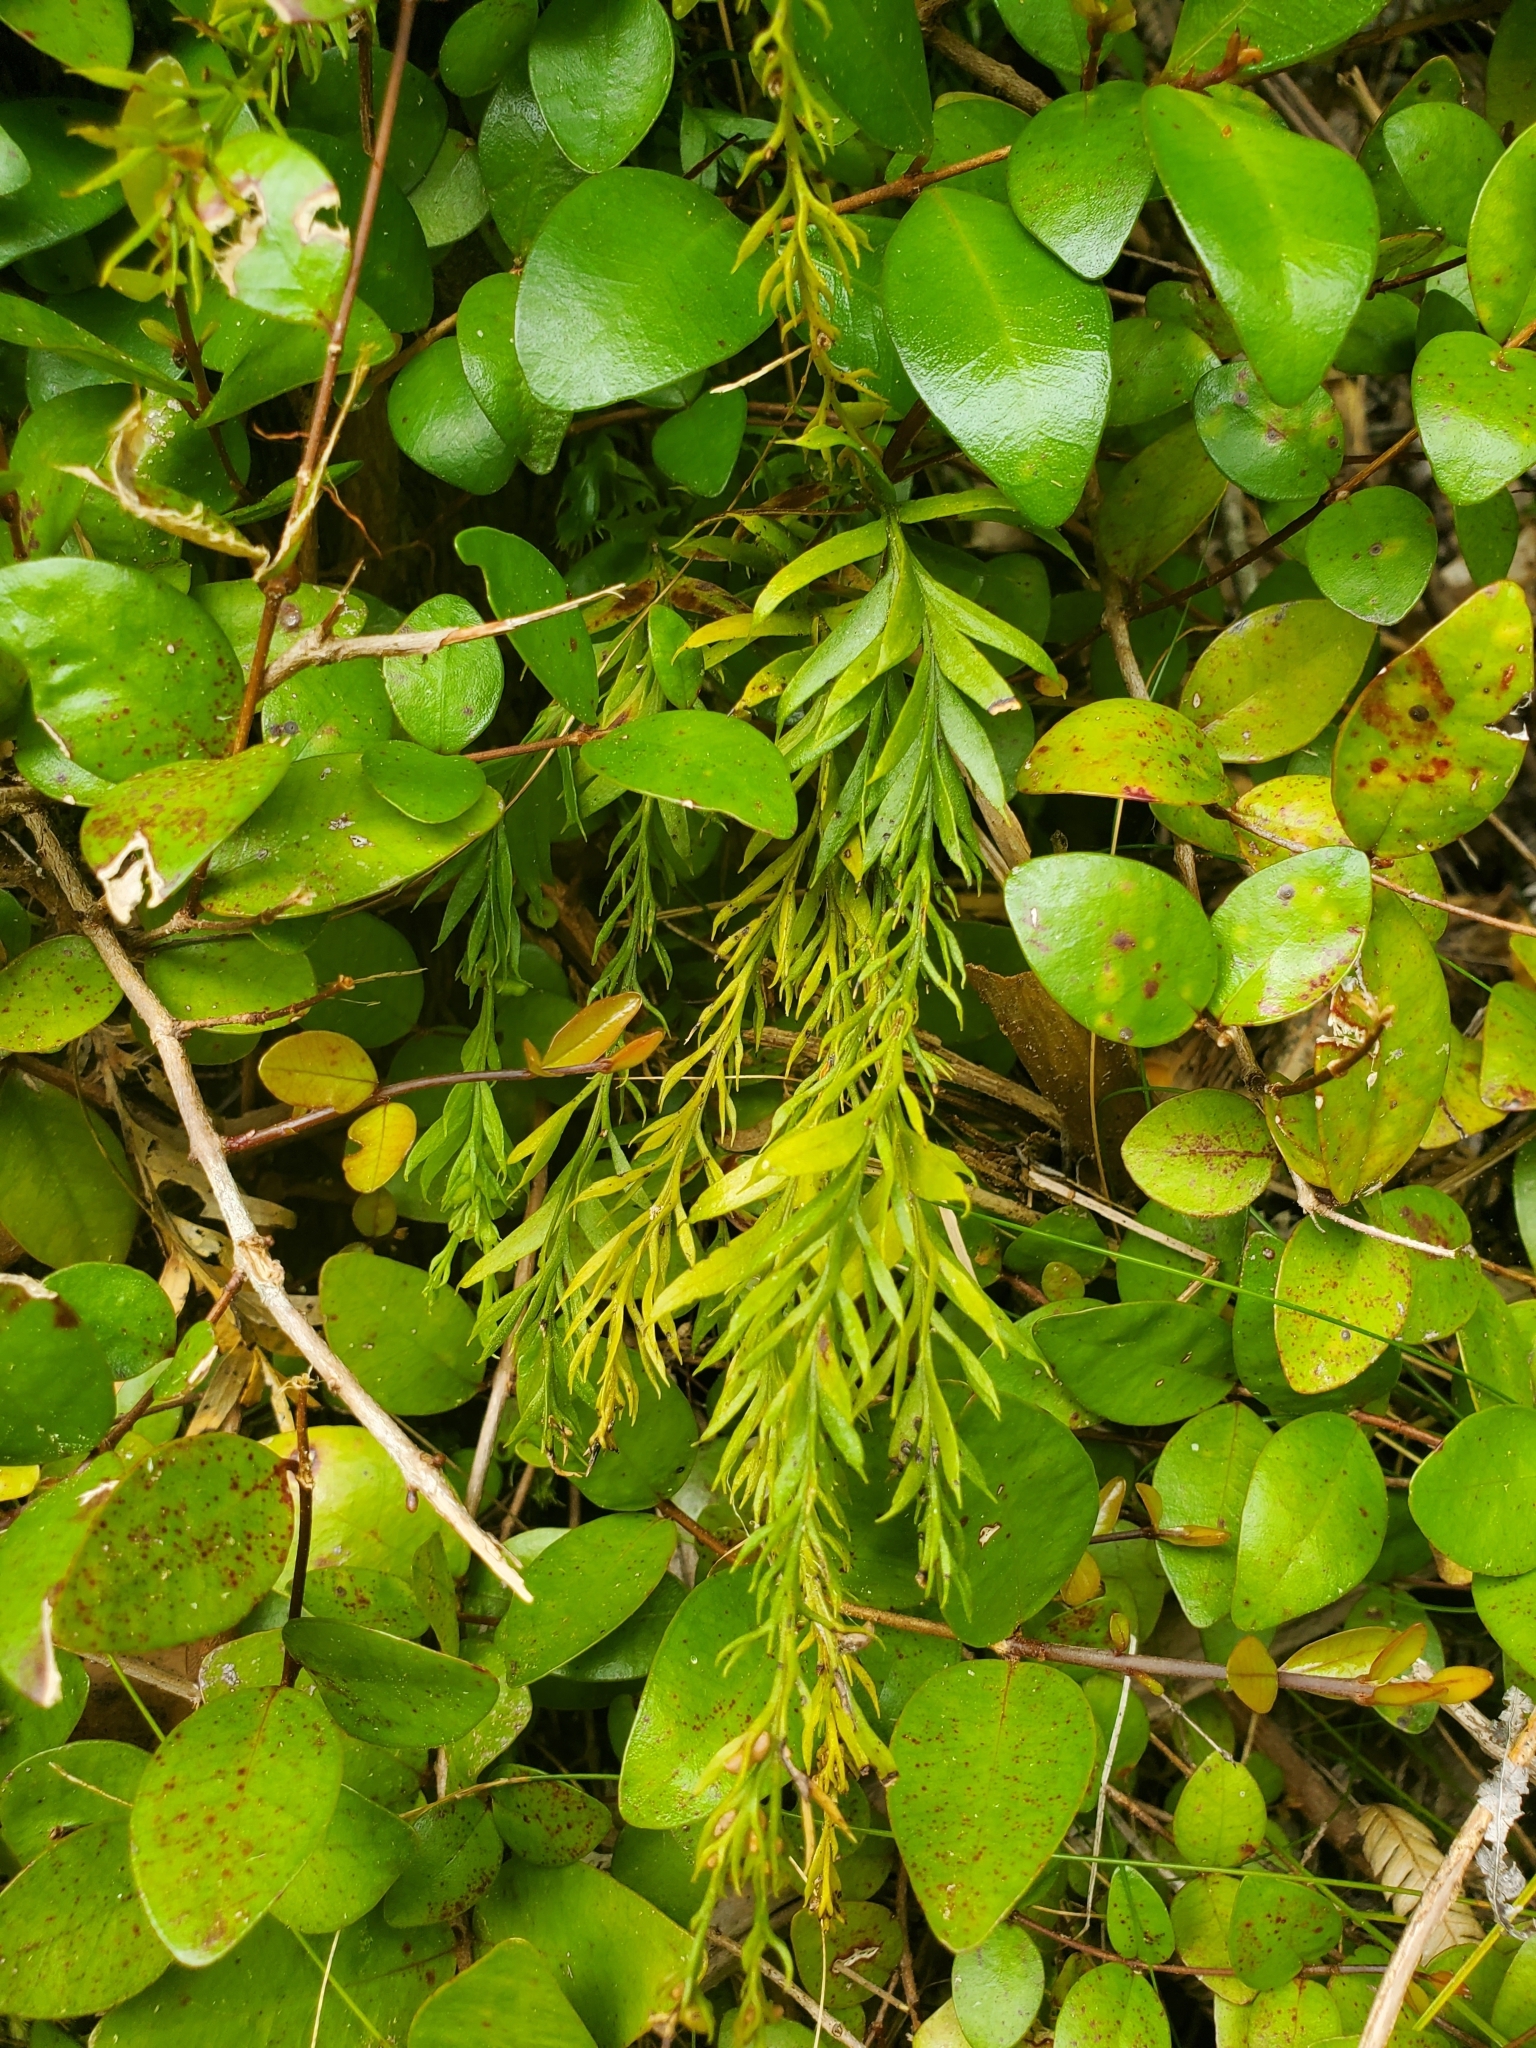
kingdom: Plantae
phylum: Tracheophyta
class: Polypodiopsida
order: Psilotales
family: Psilotaceae
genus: Tmesipteris
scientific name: Tmesipteris elongata
